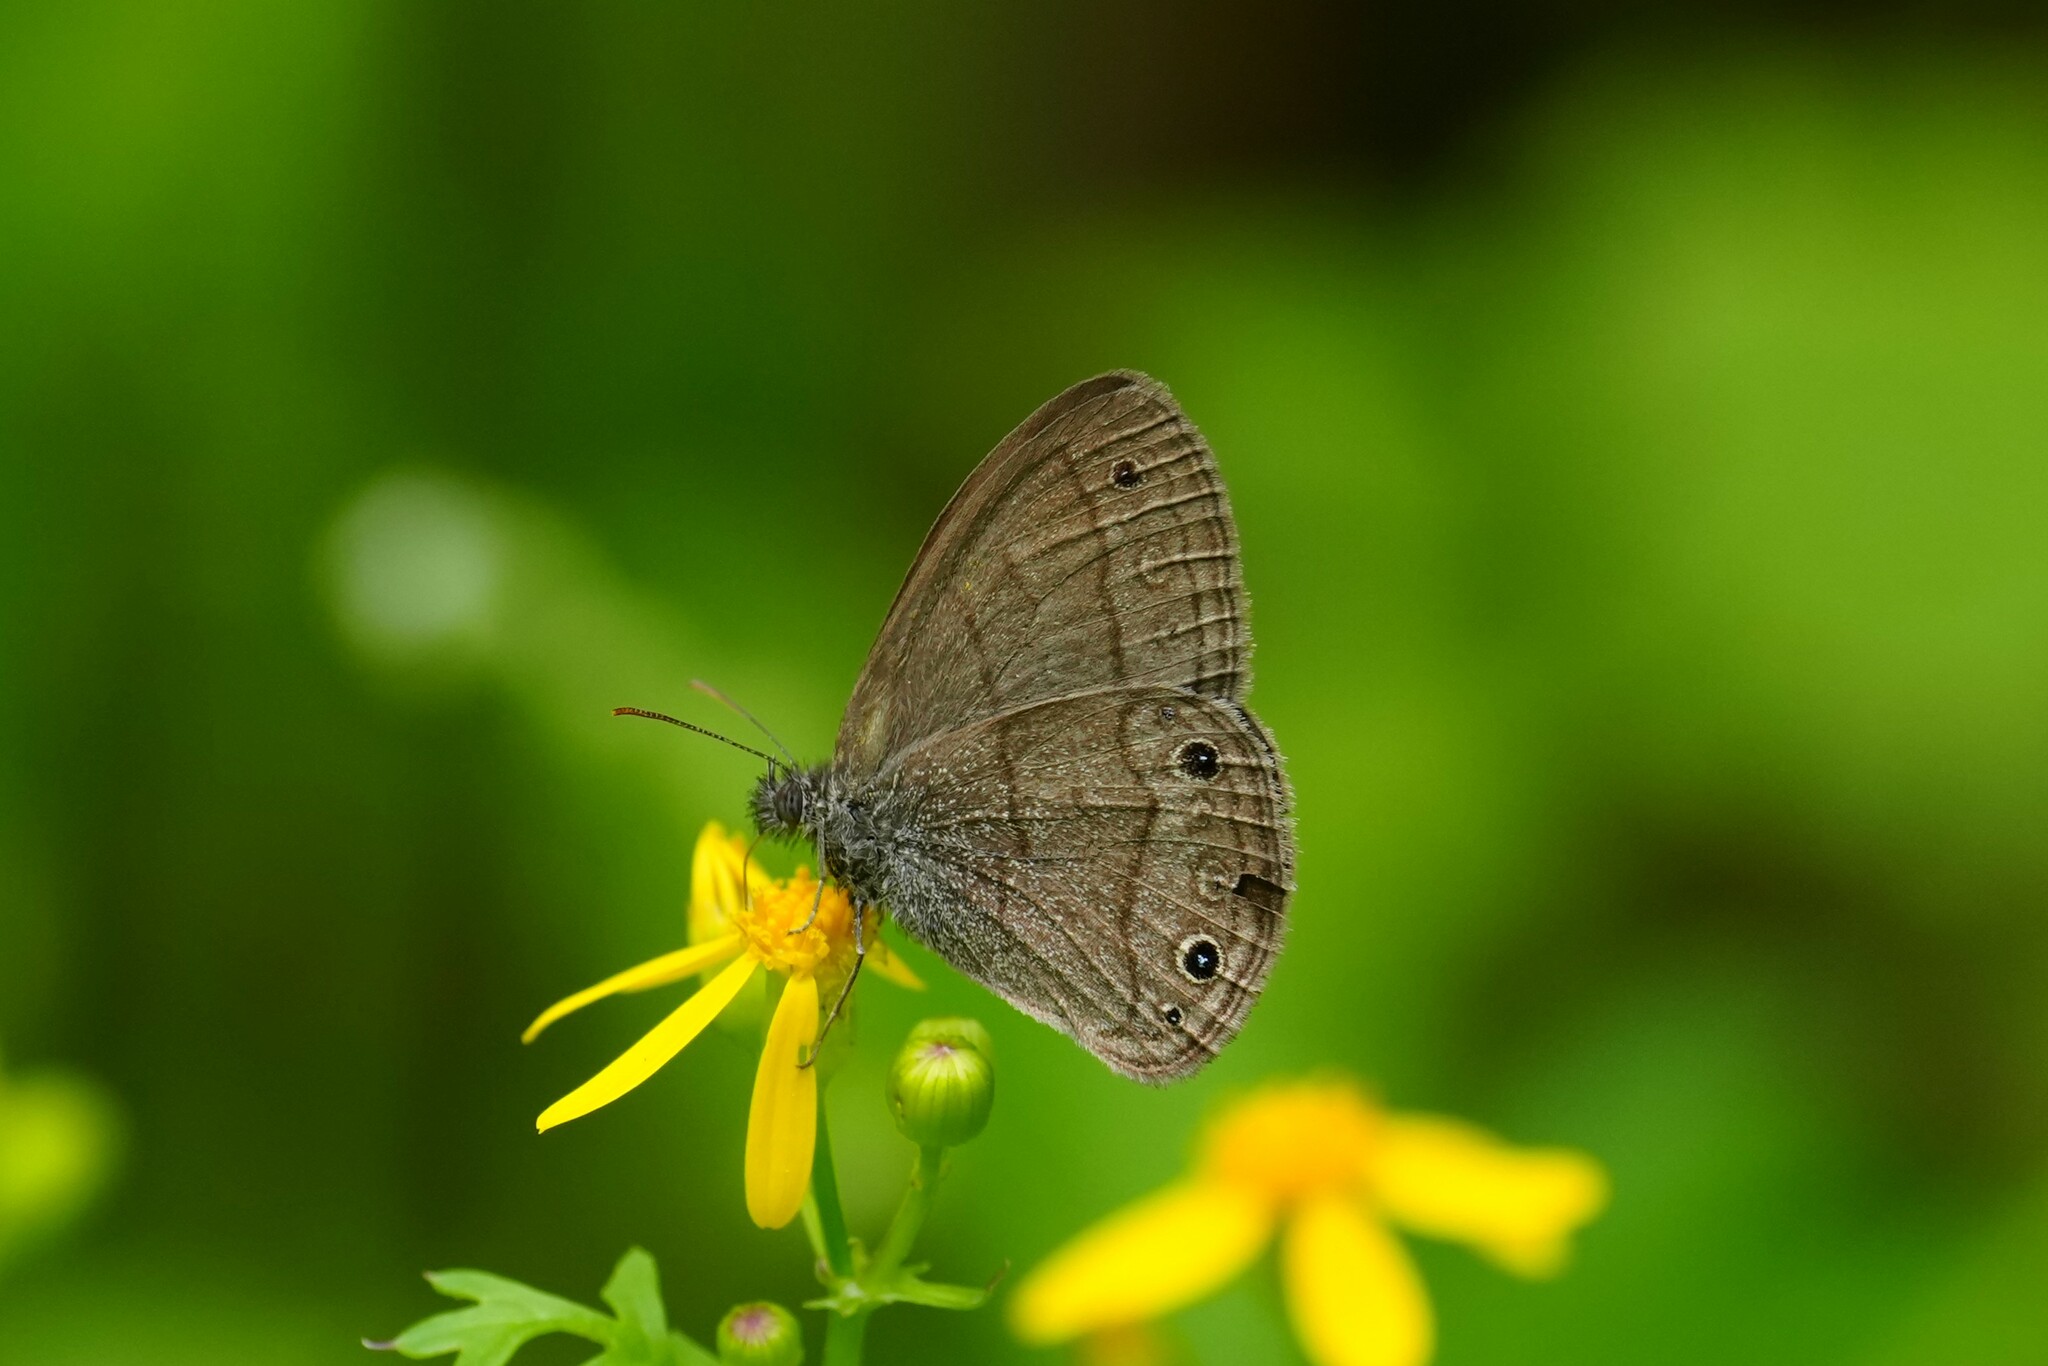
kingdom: Animalia
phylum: Arthropoda
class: Insecta
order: Lepidoptera
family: Nymphalidae
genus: Hermeuptychia
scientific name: Hermeuptychia hermes
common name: Hermes satyr
